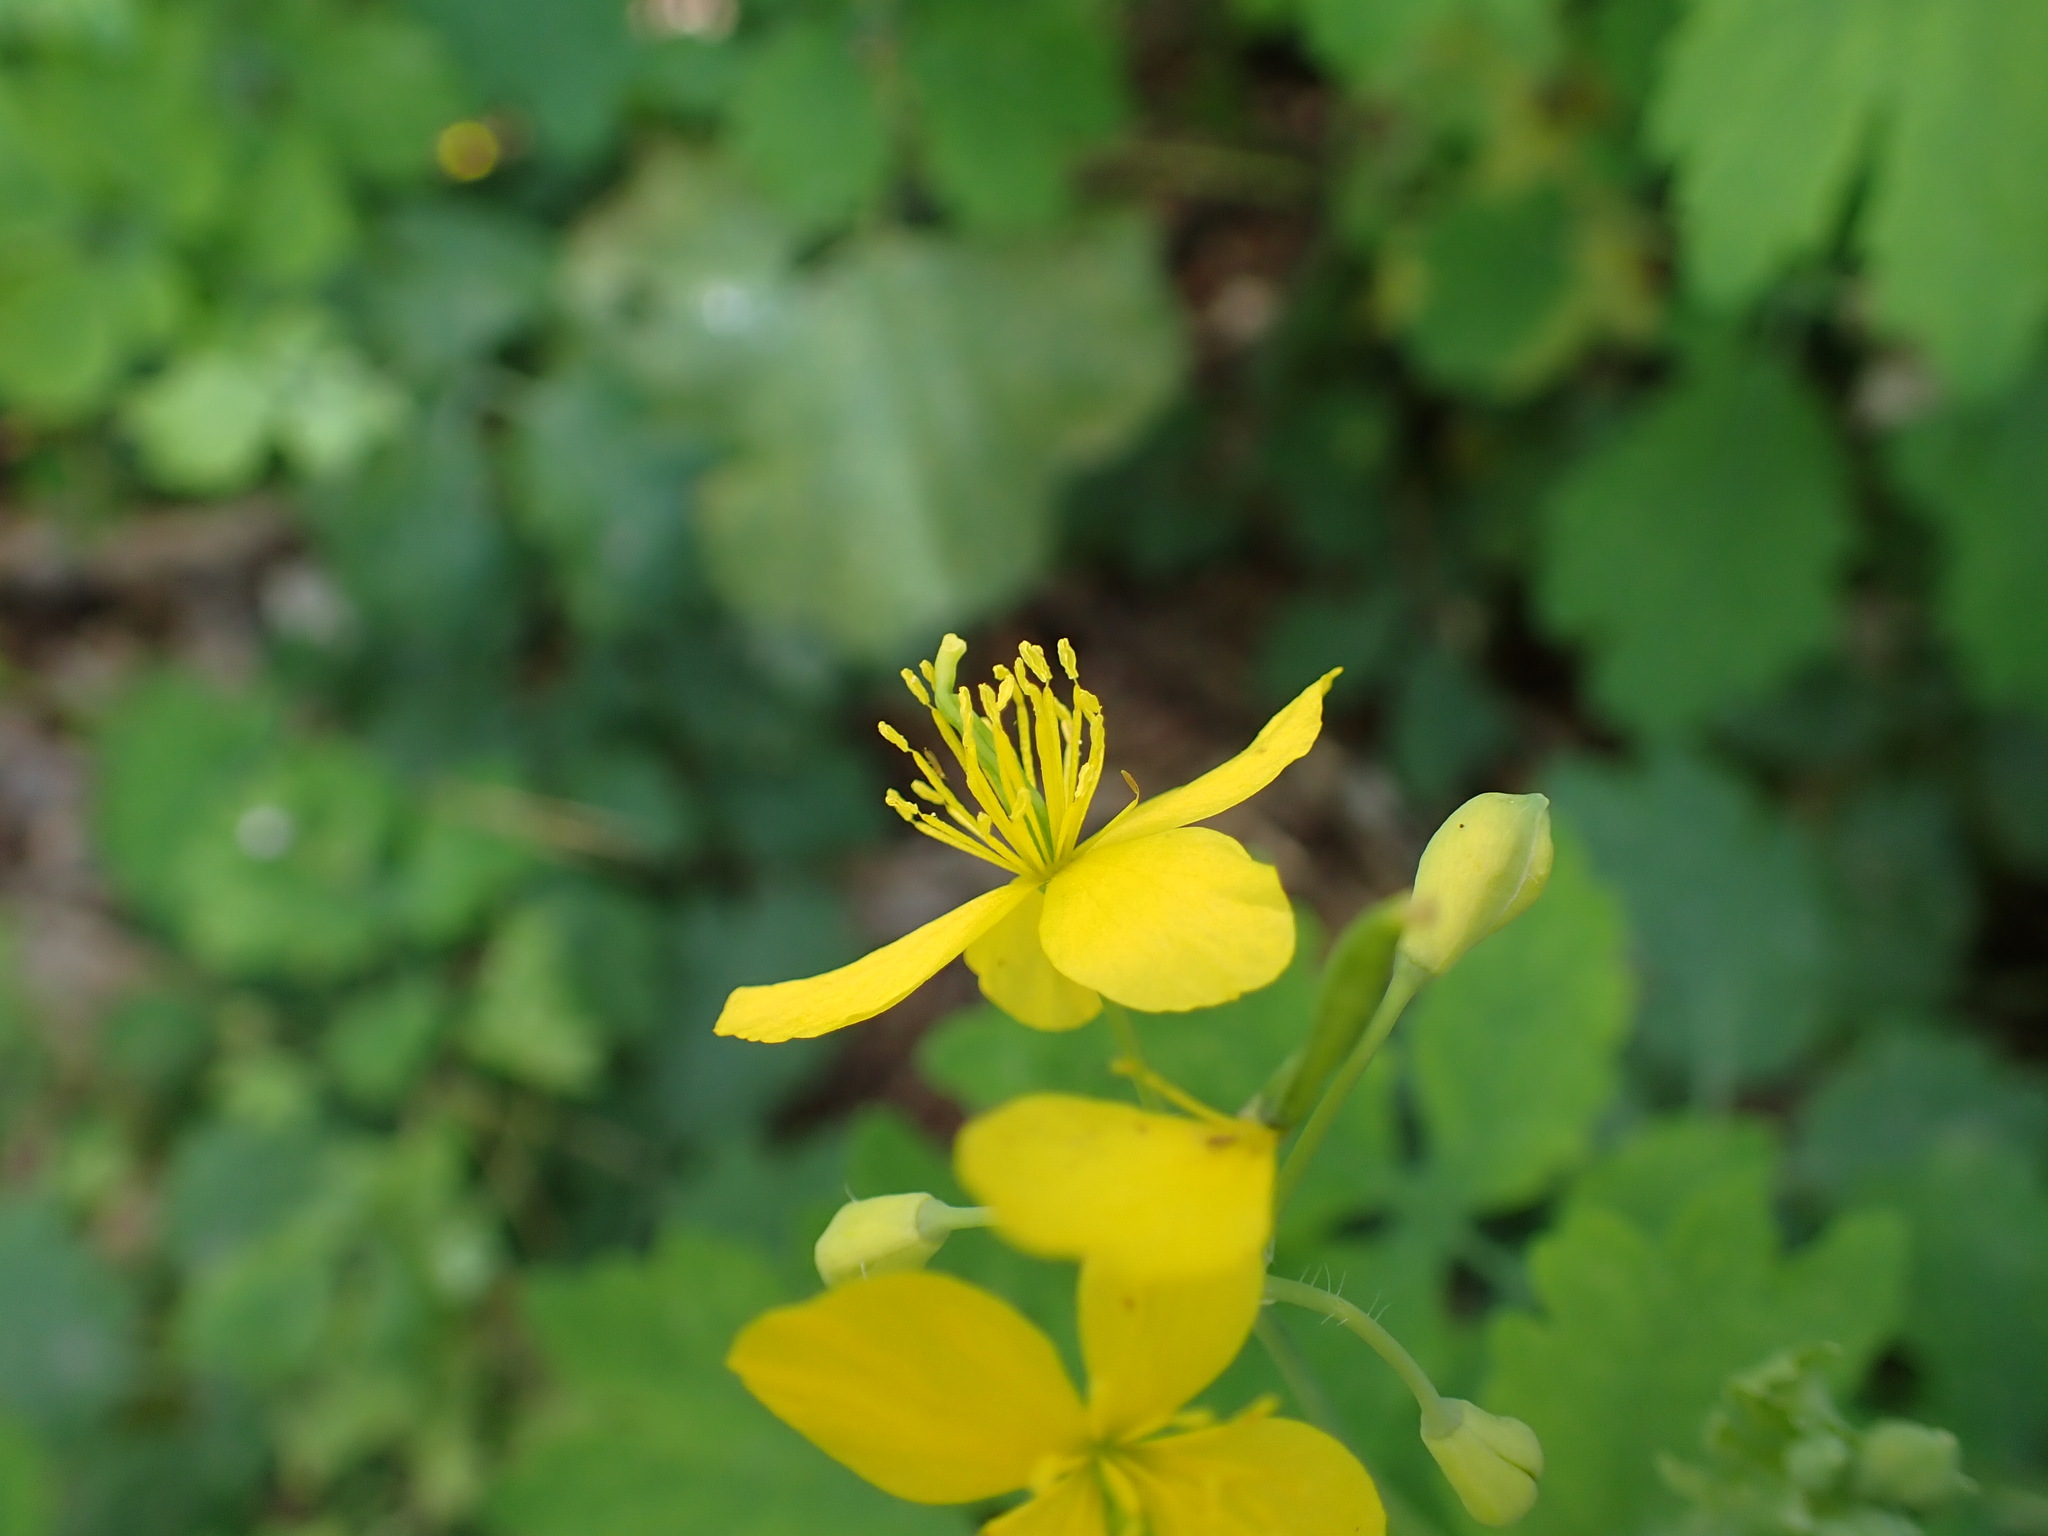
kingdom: Plantae
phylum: Tracheophyta
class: Magnoliopsida
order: Ranunculales
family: Papaveraceae
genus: Chelidonium
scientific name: Chelidonium majus
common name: Greater celandine
